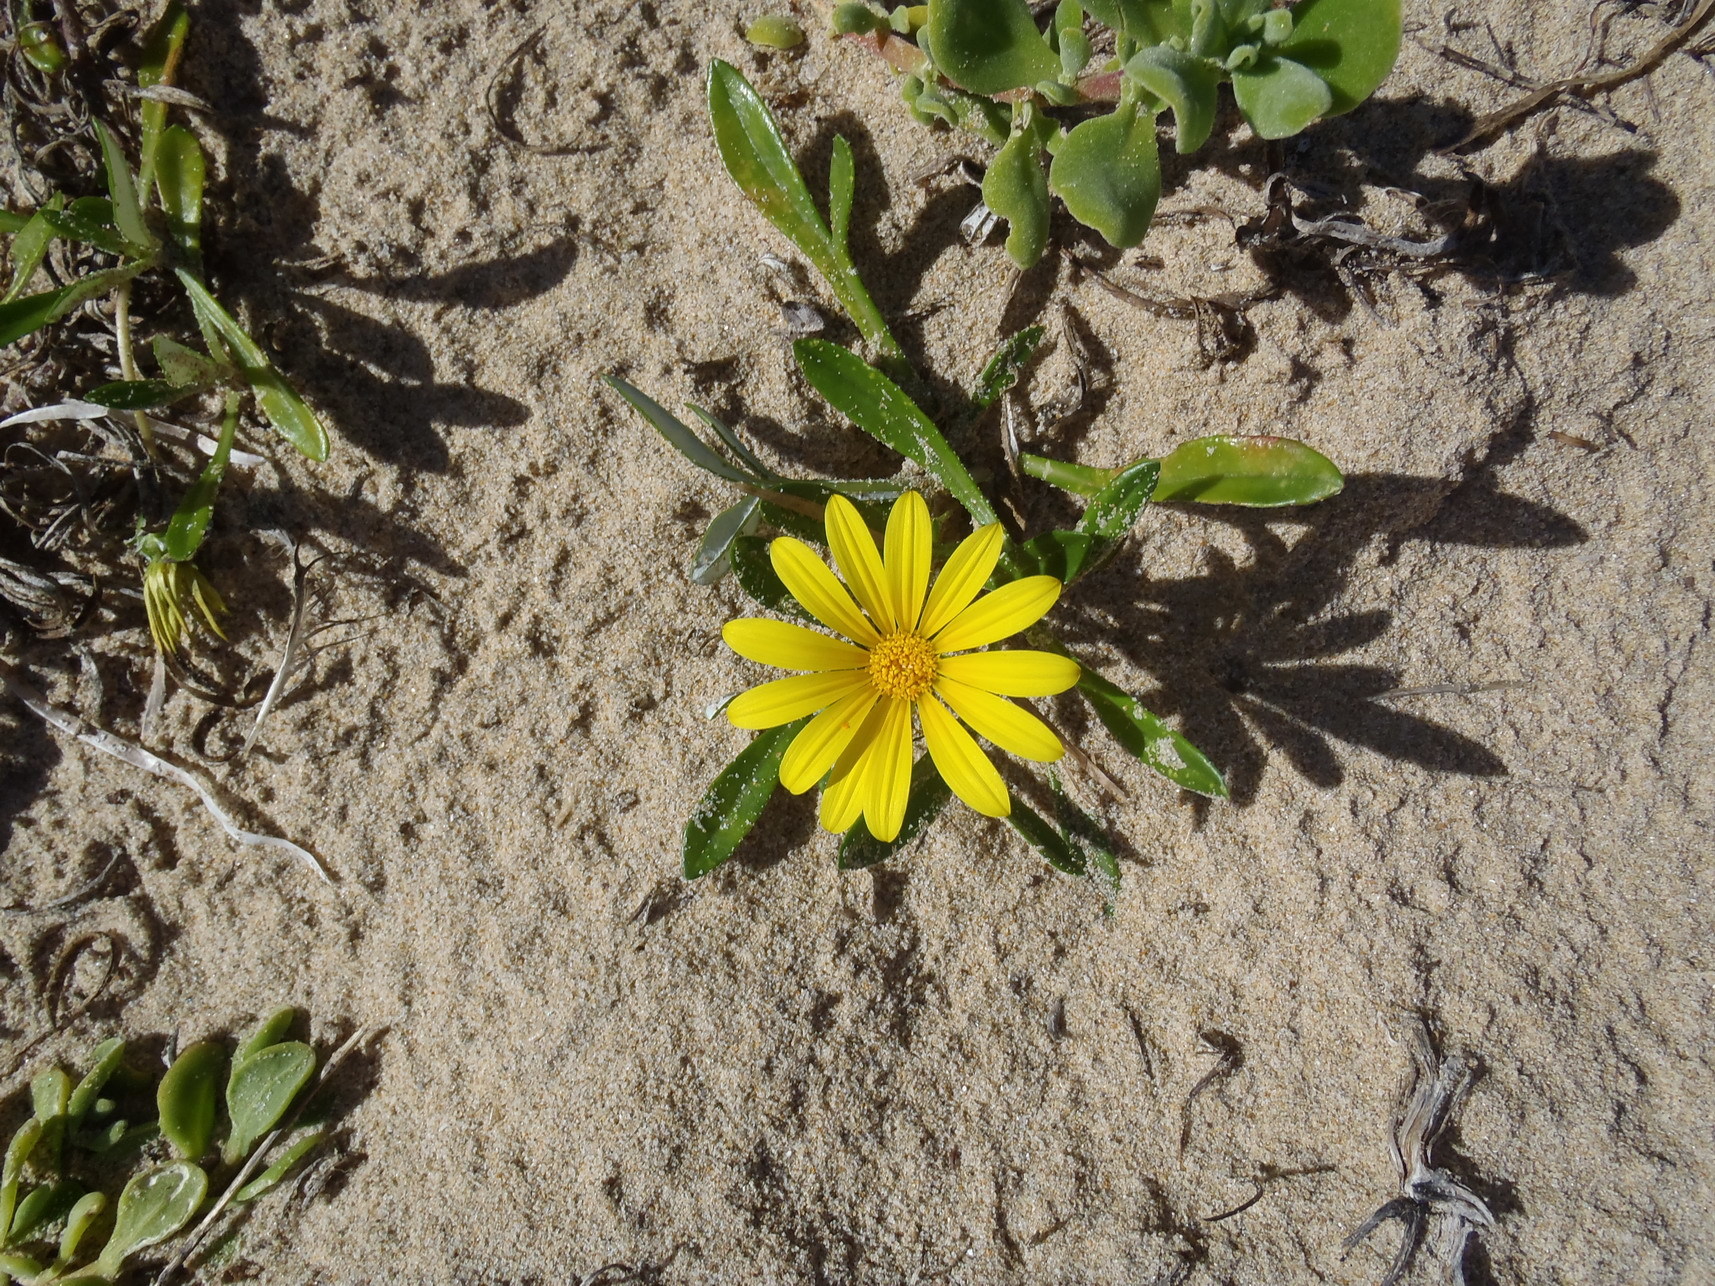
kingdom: Plantae
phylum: Tracheophyta
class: Magnoliopsida
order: Asterales
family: Asteraceae
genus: Gazania
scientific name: Gazania rigens
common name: Treasureflower
